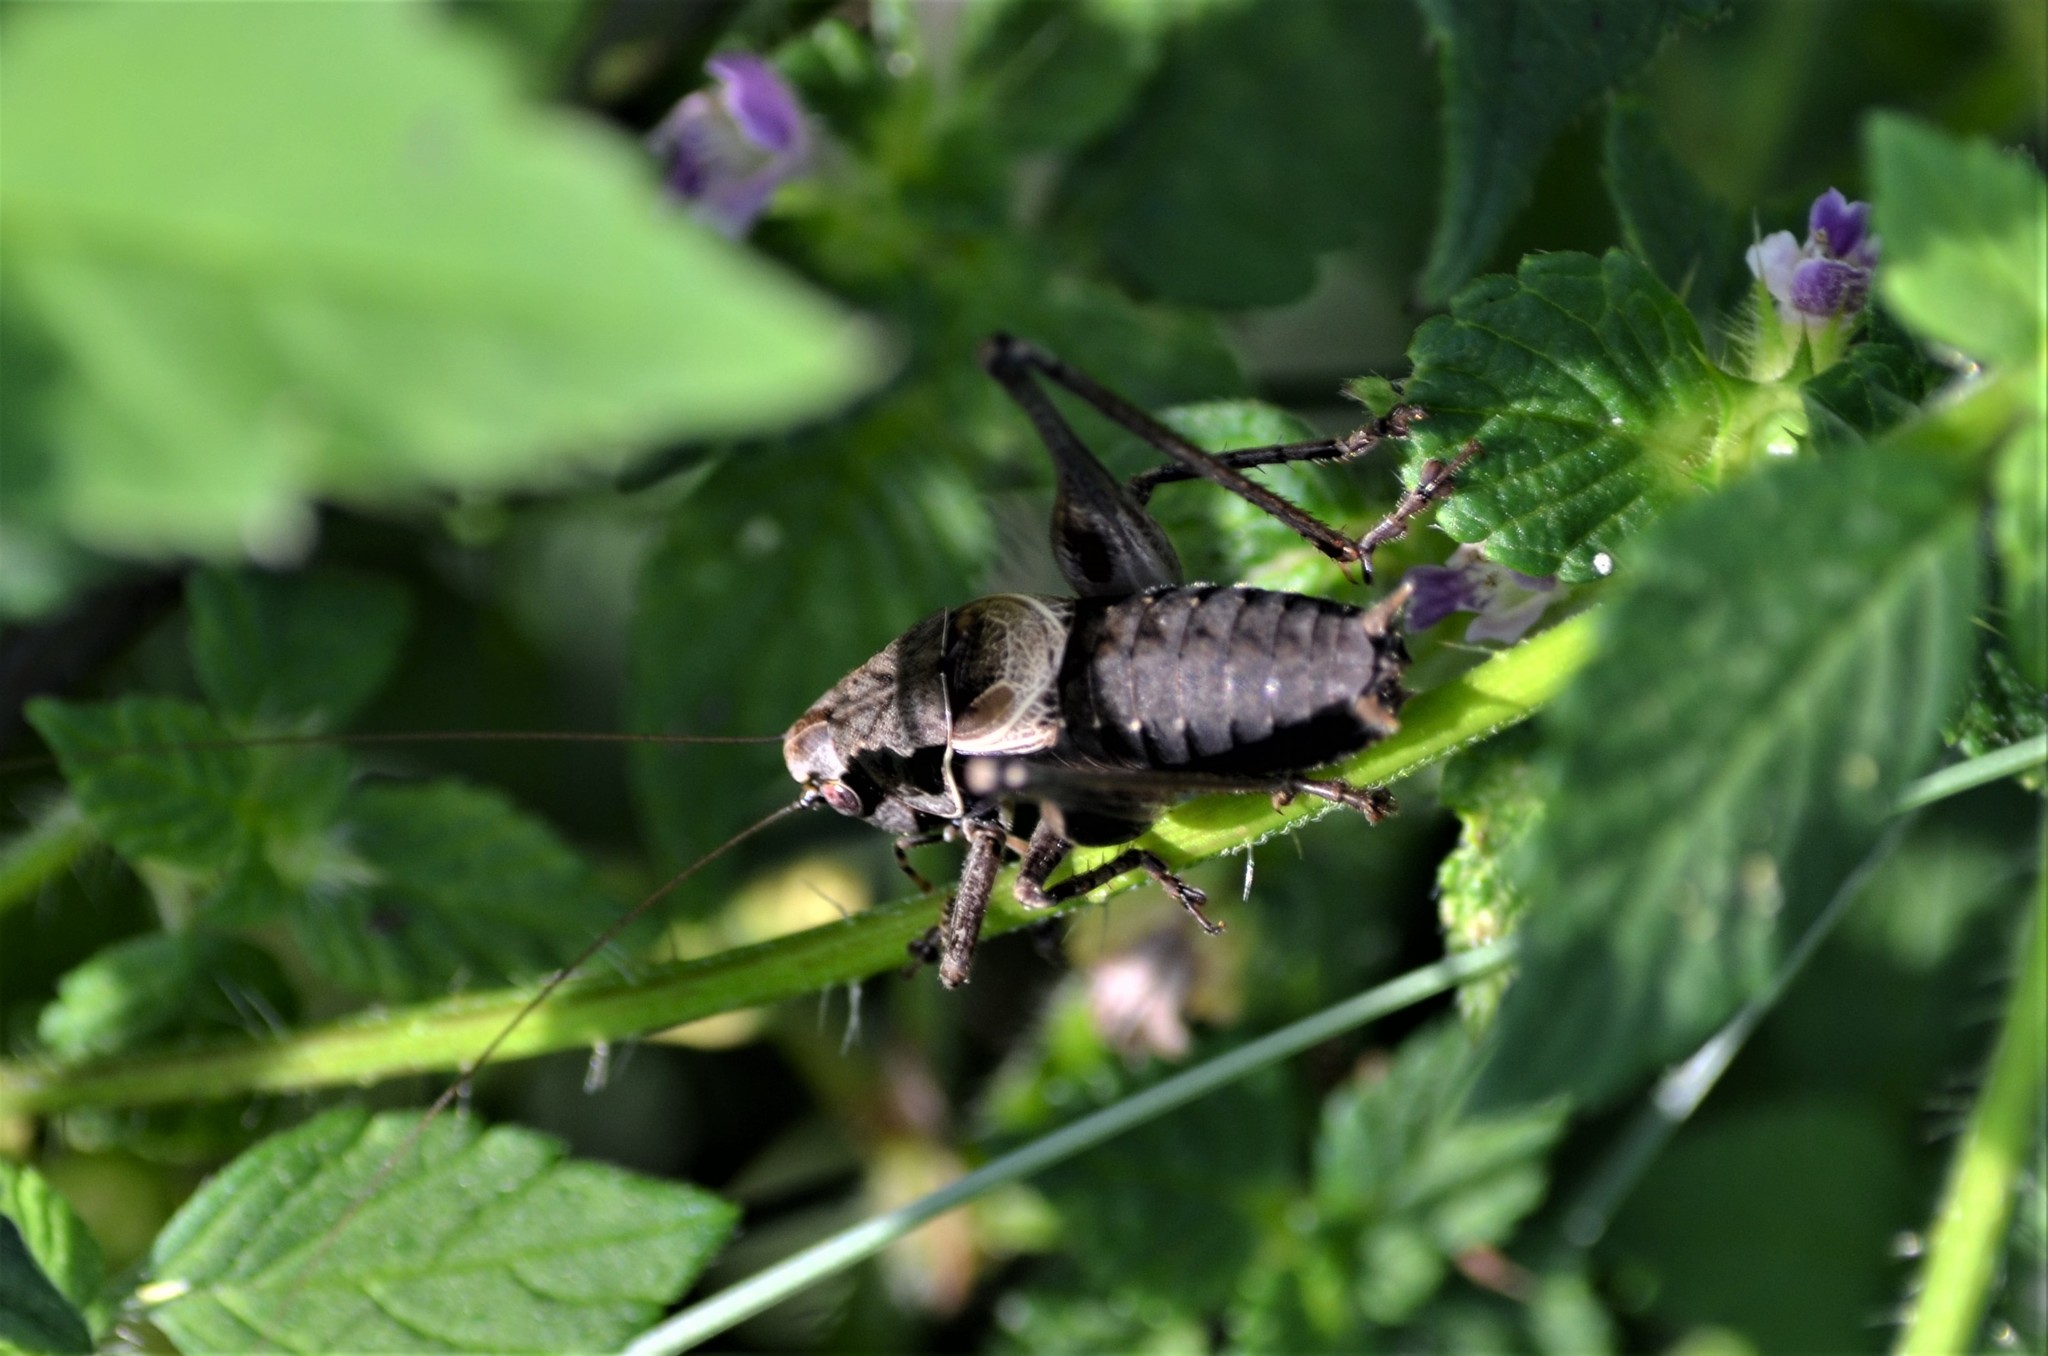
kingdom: Animalia
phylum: Arthropoda
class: Insecta
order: Orthoptera
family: Tettigoniidae
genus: Pholidoptera
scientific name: Pholidoptera griseoaptera
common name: Dark bush-cricket
